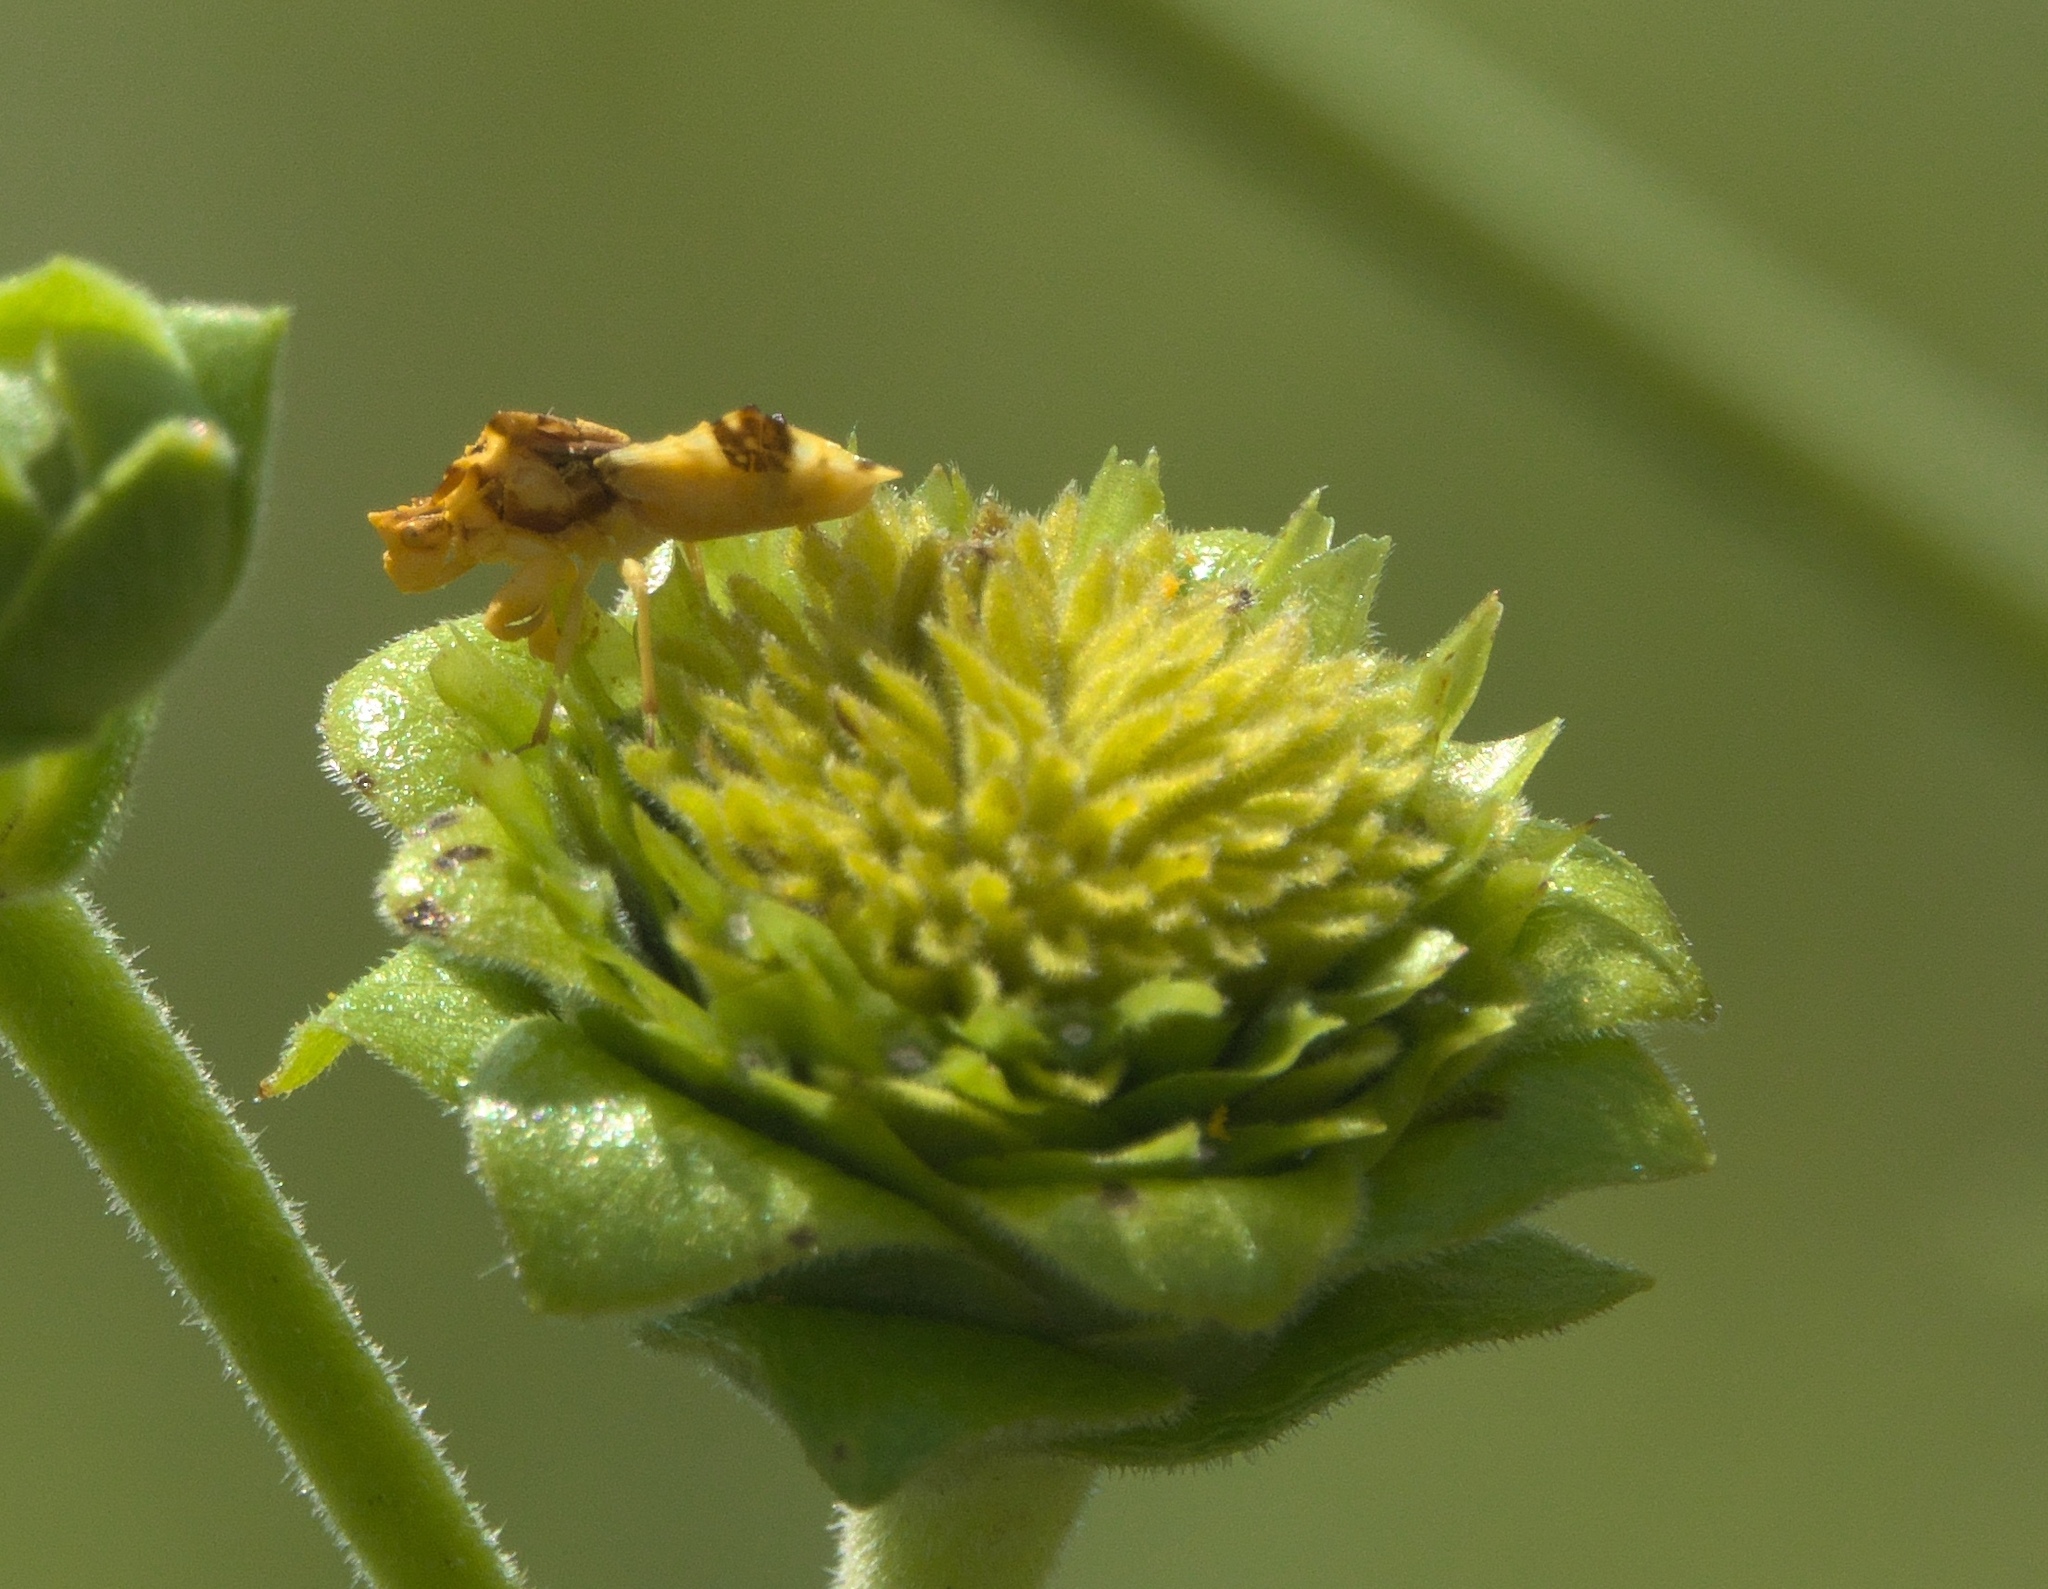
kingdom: Animalia
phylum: Arthropoda
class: Insecta
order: Hemiptera
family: Reduviidae
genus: Phymata
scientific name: Phymata fasciata
